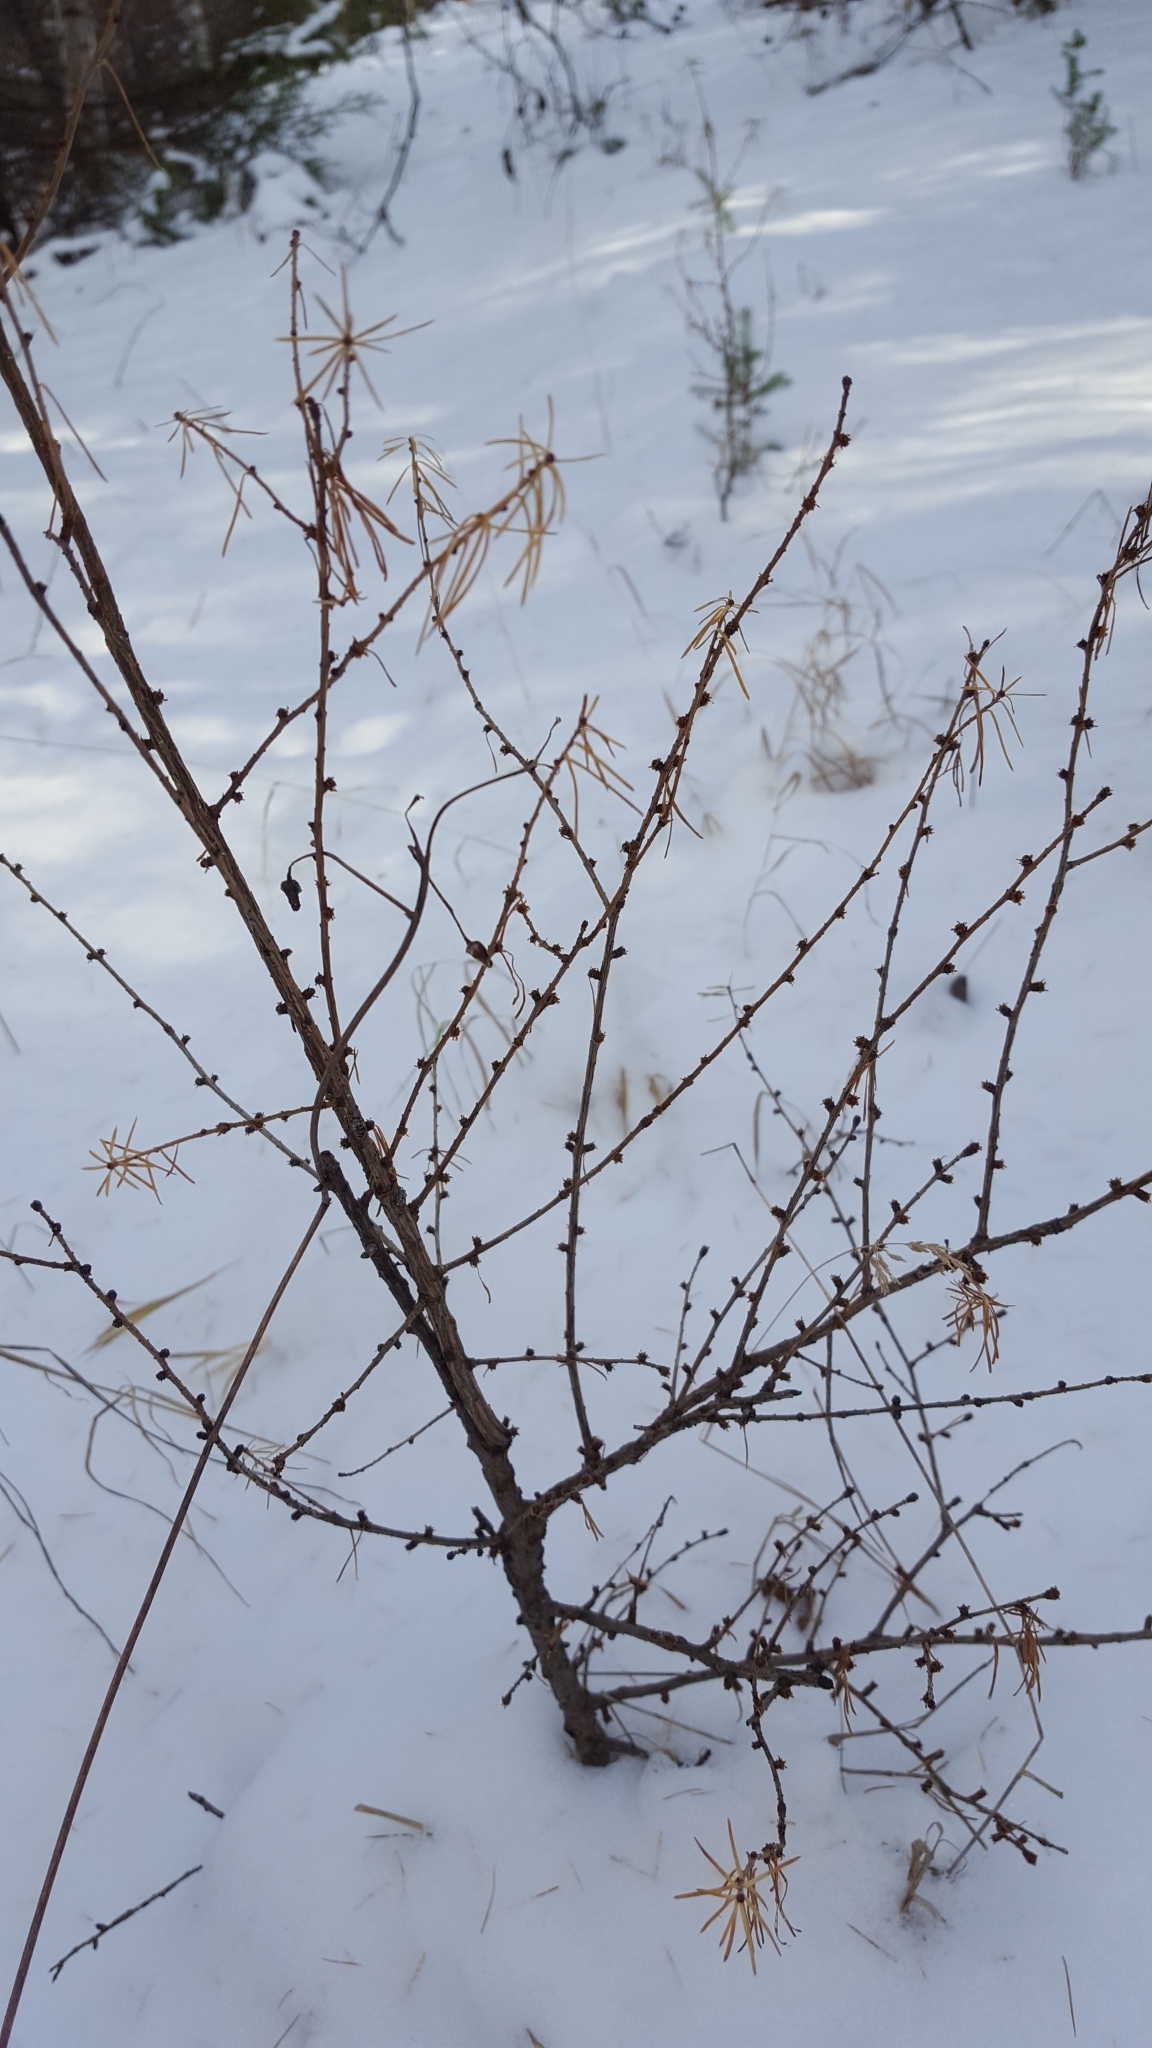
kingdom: Plantae
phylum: Tracheophyta
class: Pinopsida
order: Pinales
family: Pinaceae
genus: Larix
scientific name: Larix laricina
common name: American larch
